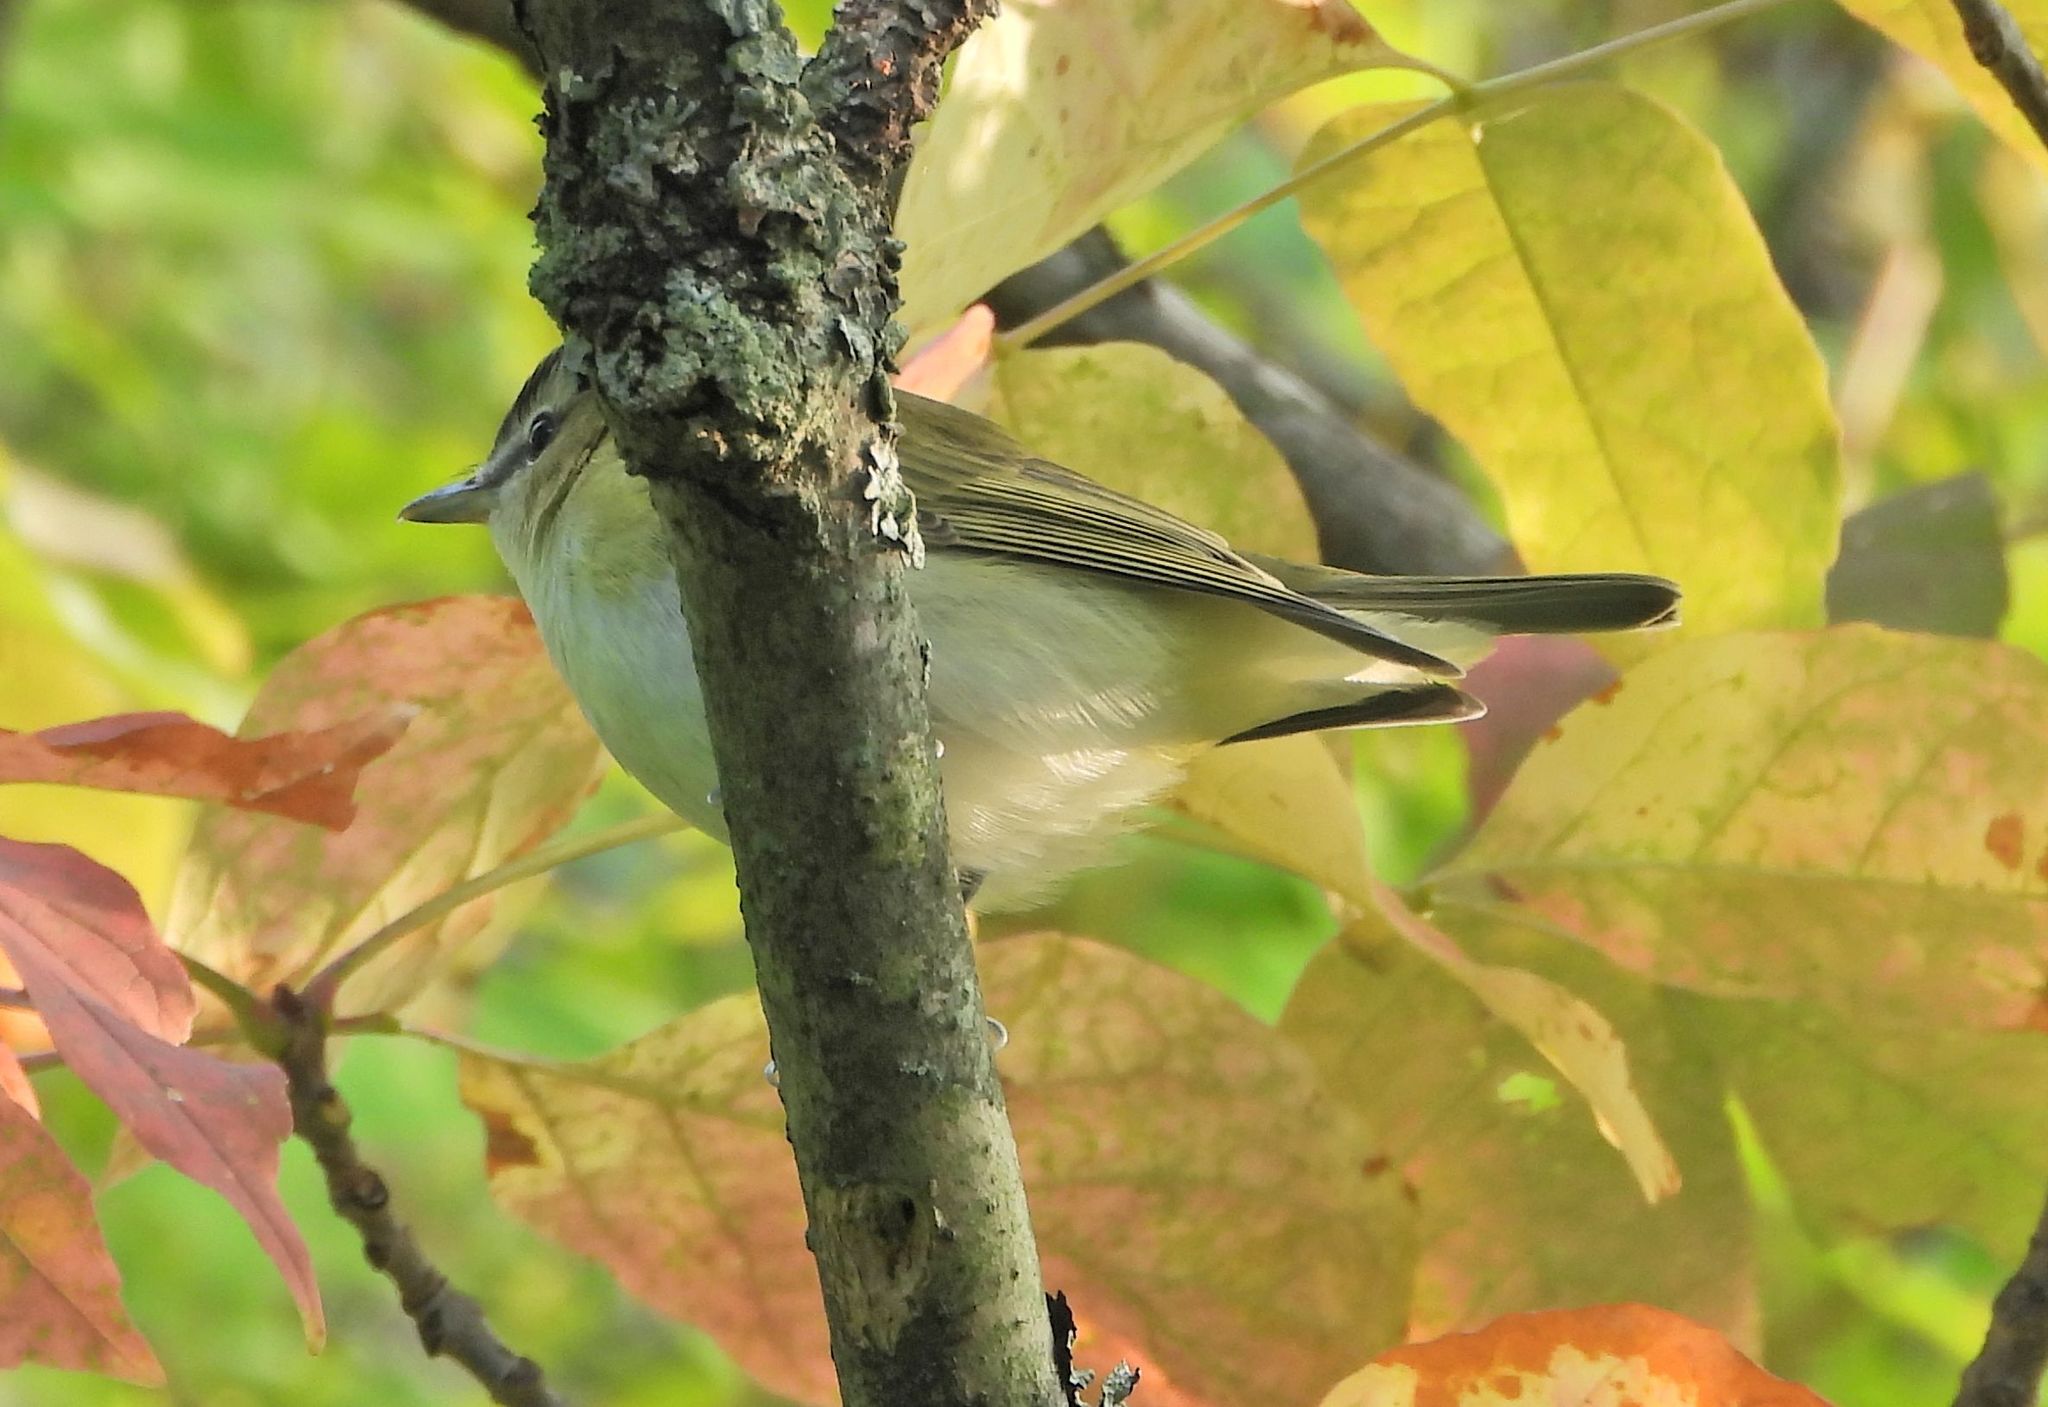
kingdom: Animalia
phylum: Chordata
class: Aves
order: Passeriformes
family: Vireonidae
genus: Vireo
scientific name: Vireo olivaceus
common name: Red-eyed vireo
